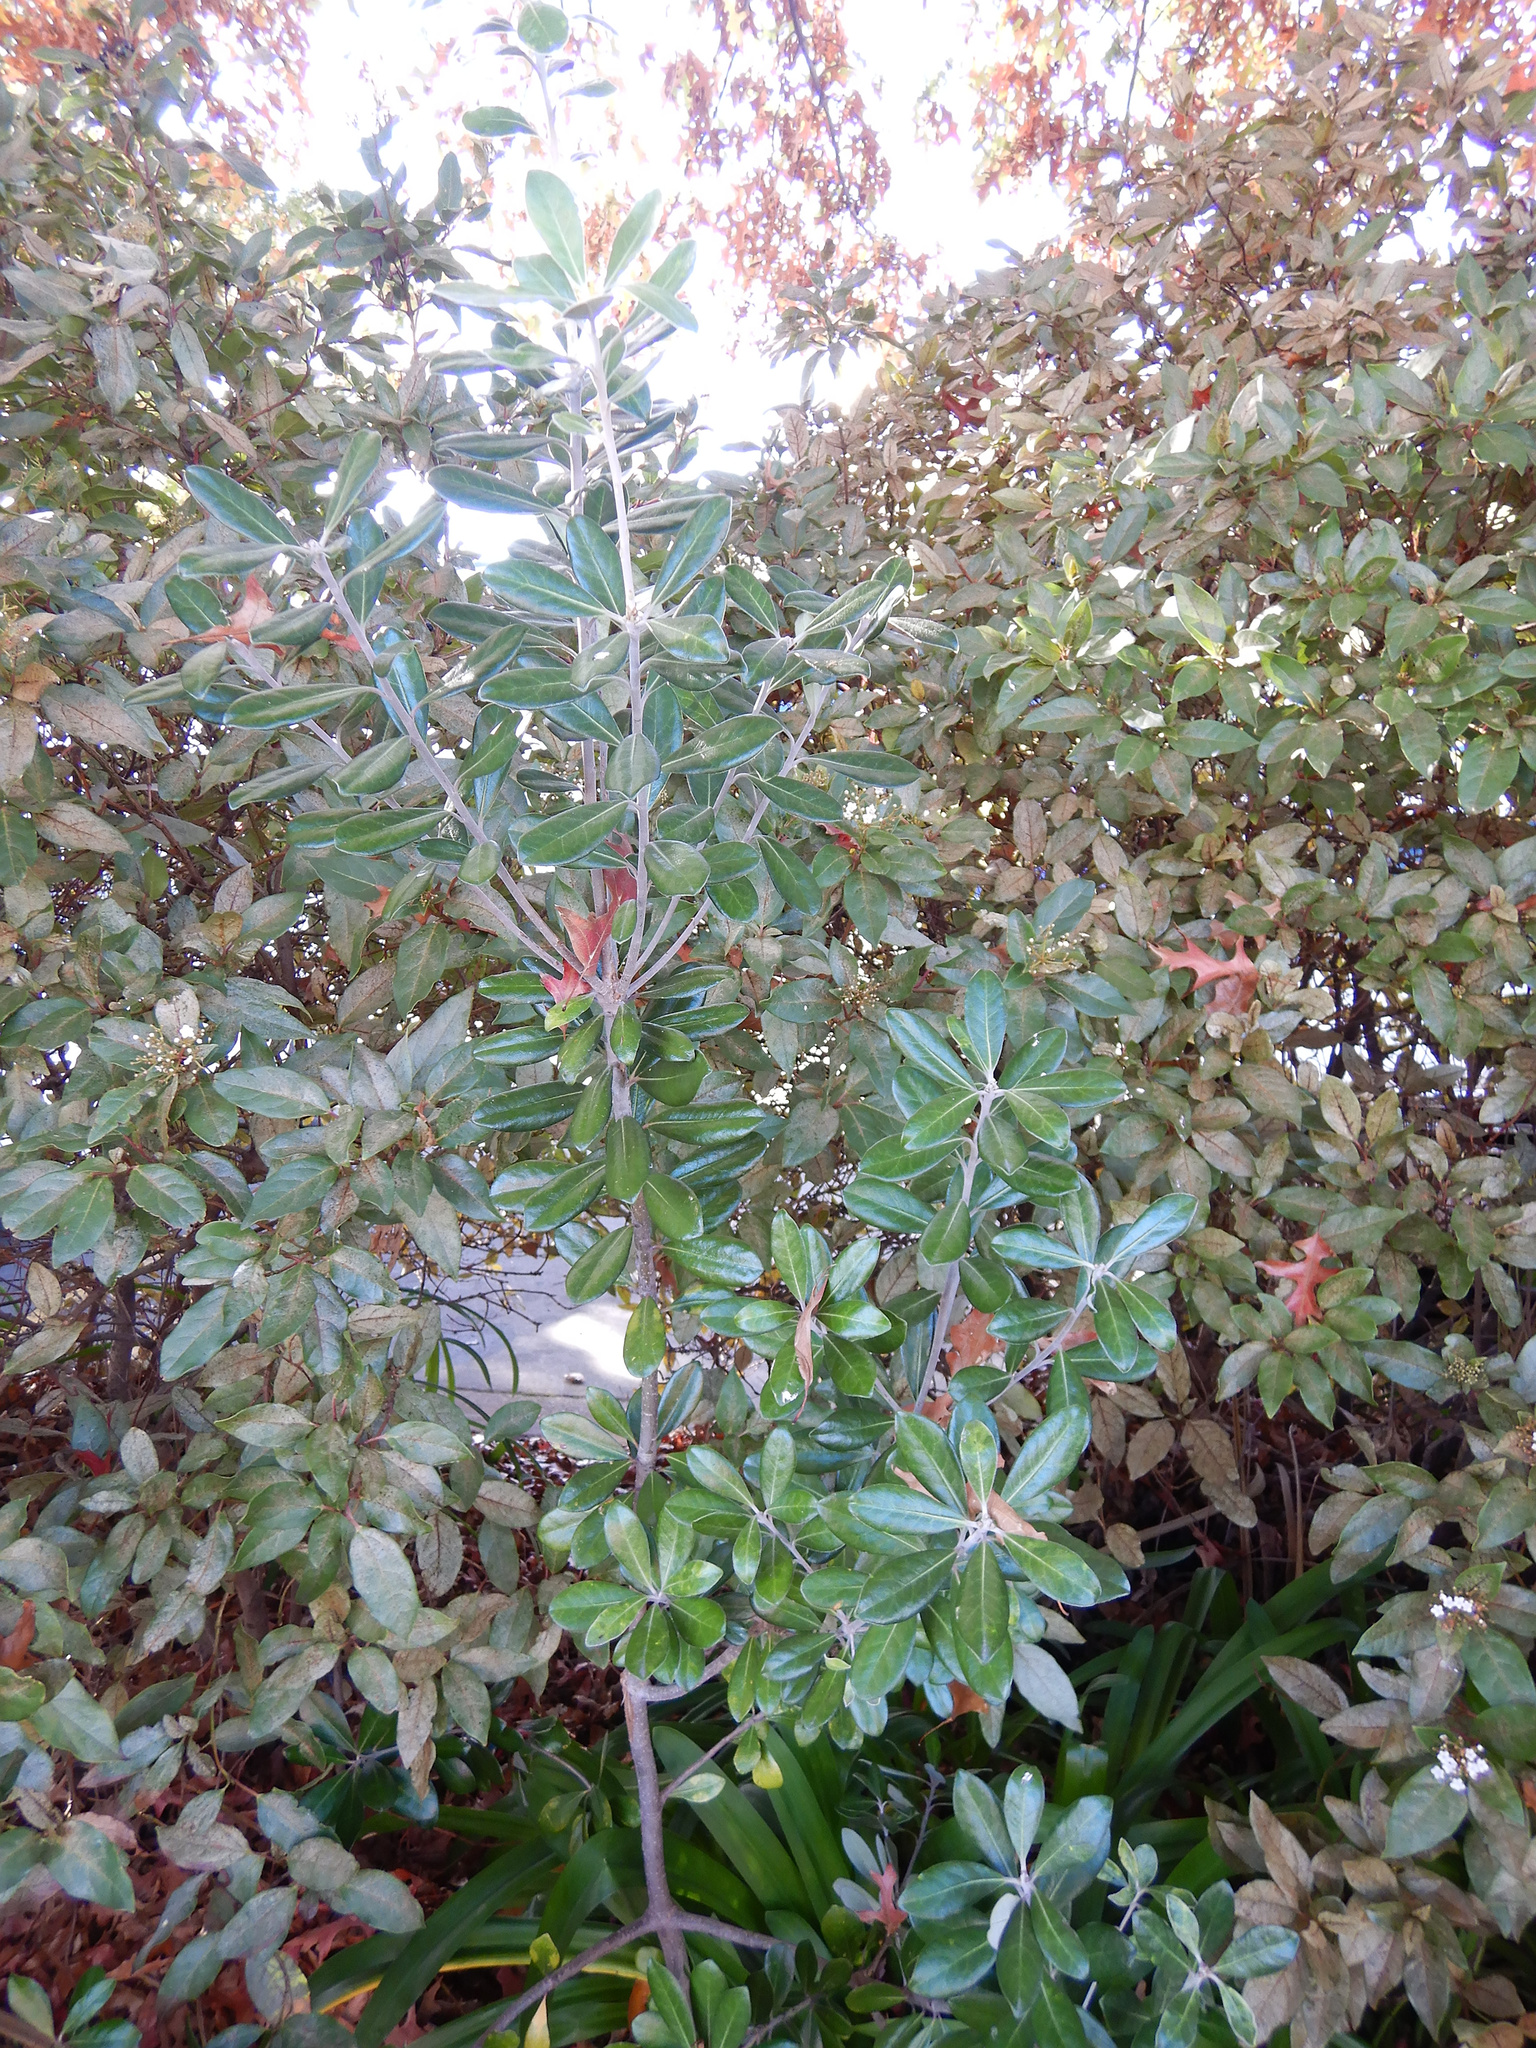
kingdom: Plantae
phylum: Tracheophyta
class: Magnoliopsida
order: Apiales
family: Pittosporaceae
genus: Pittosporum
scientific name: Pittosporum crassifolium
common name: Karo
